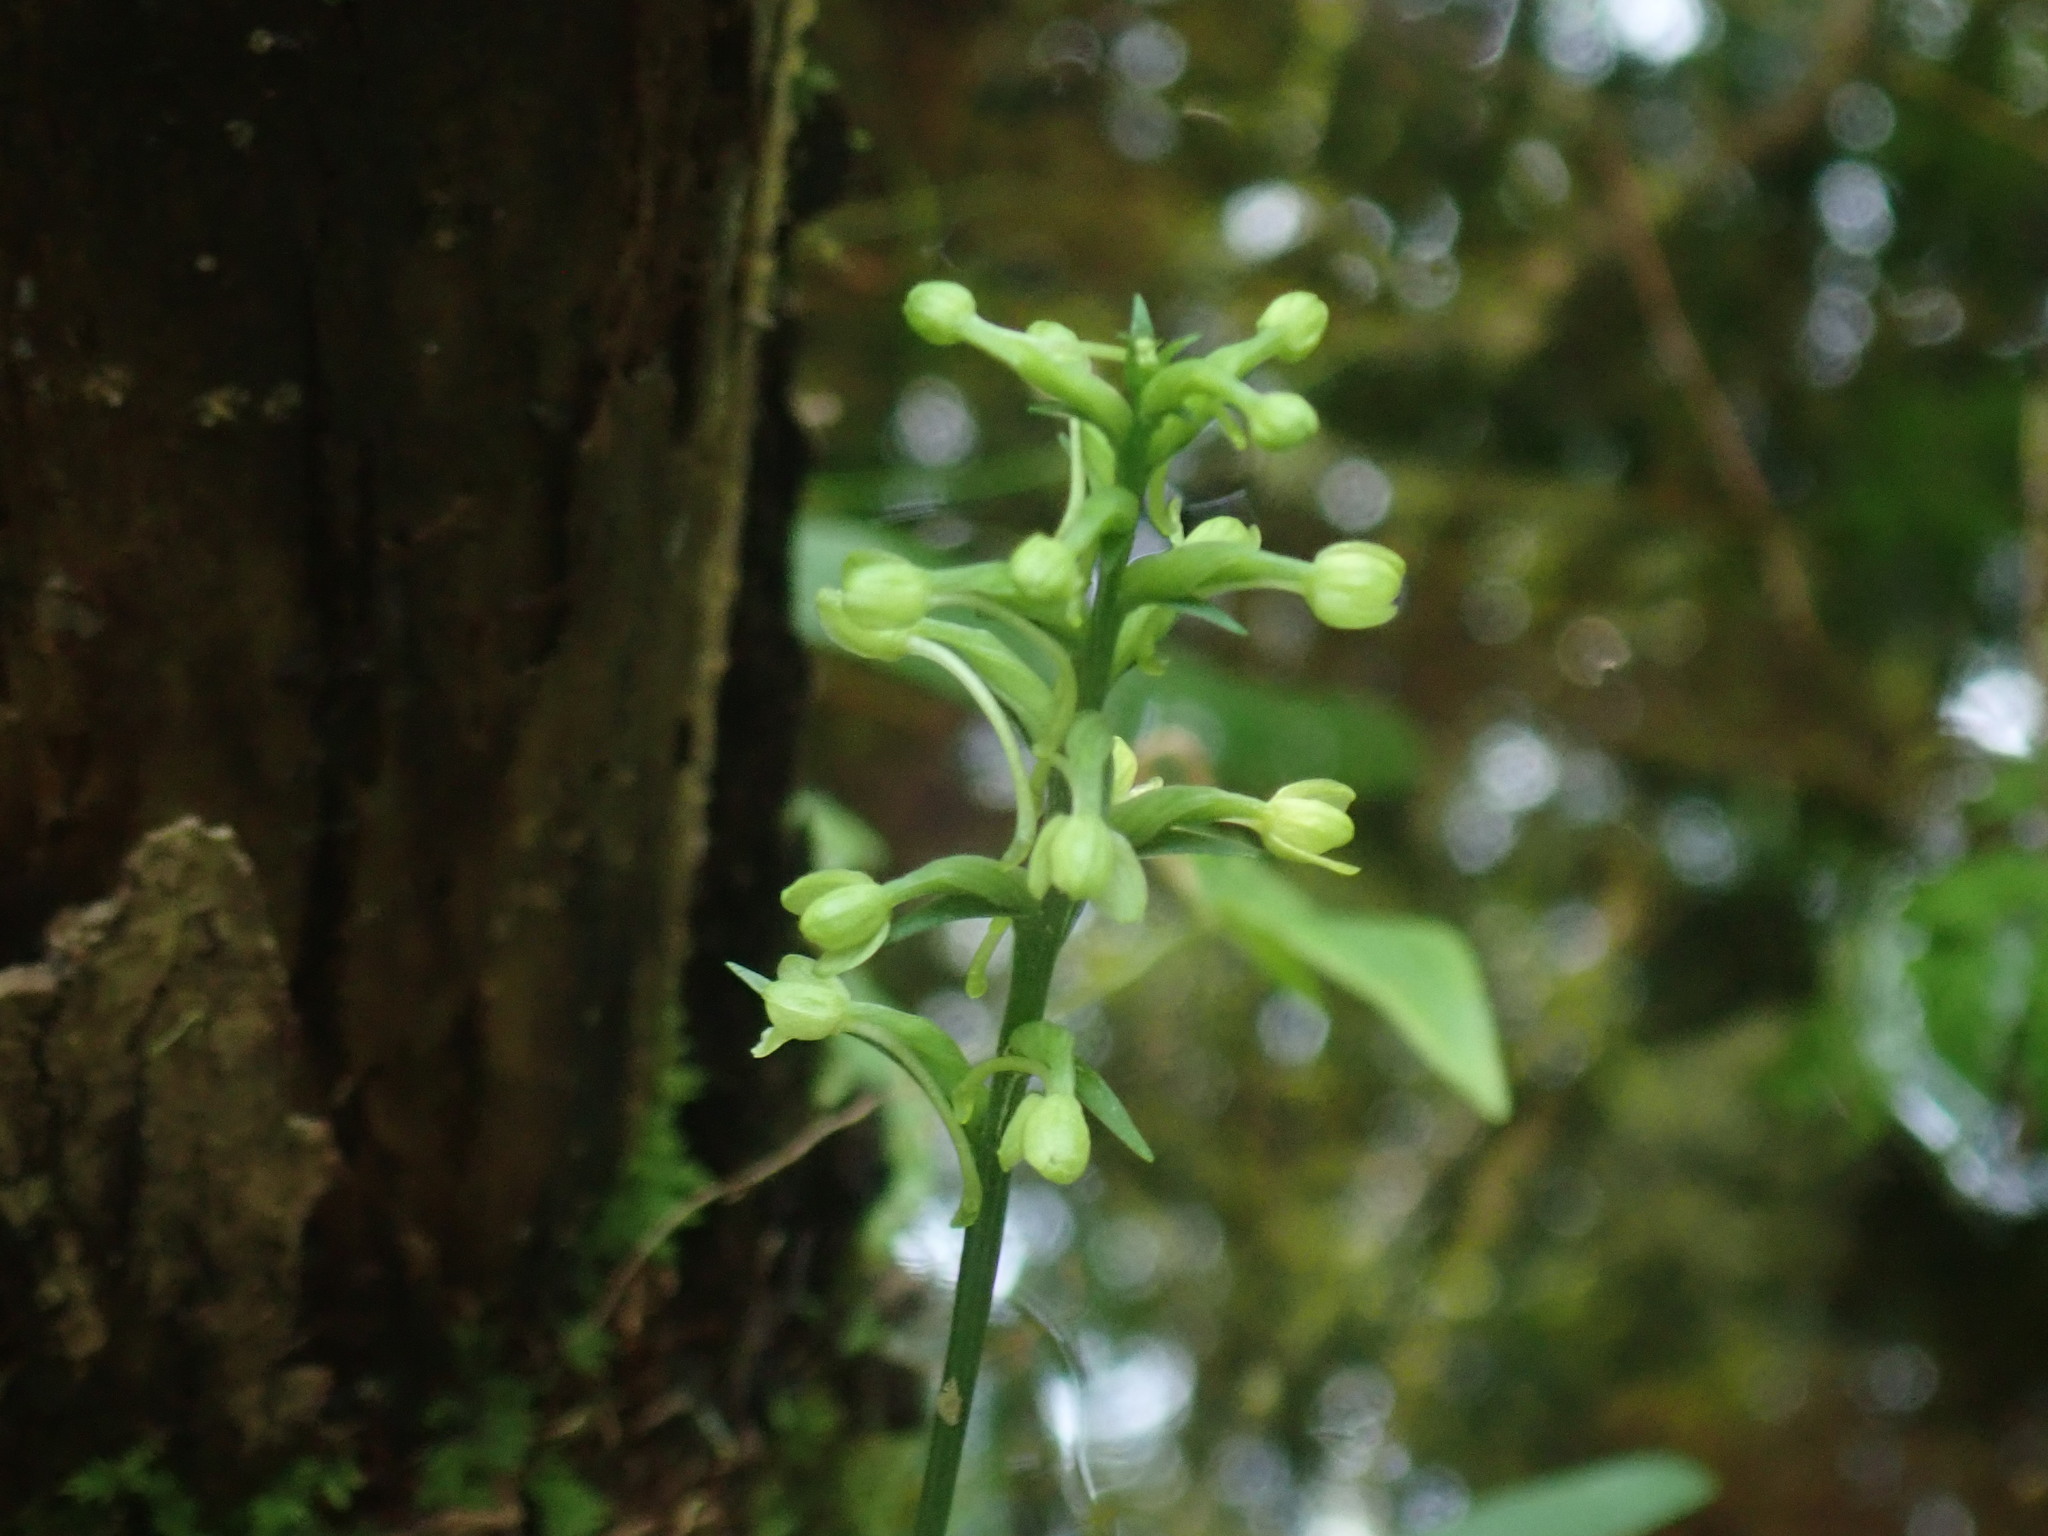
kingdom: Plantae
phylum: Tracheophyta
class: Liliopsida
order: Asparagales
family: Orchidaceae
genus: Platanthera
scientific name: Platanthera clavellata
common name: Club-spur orchid
